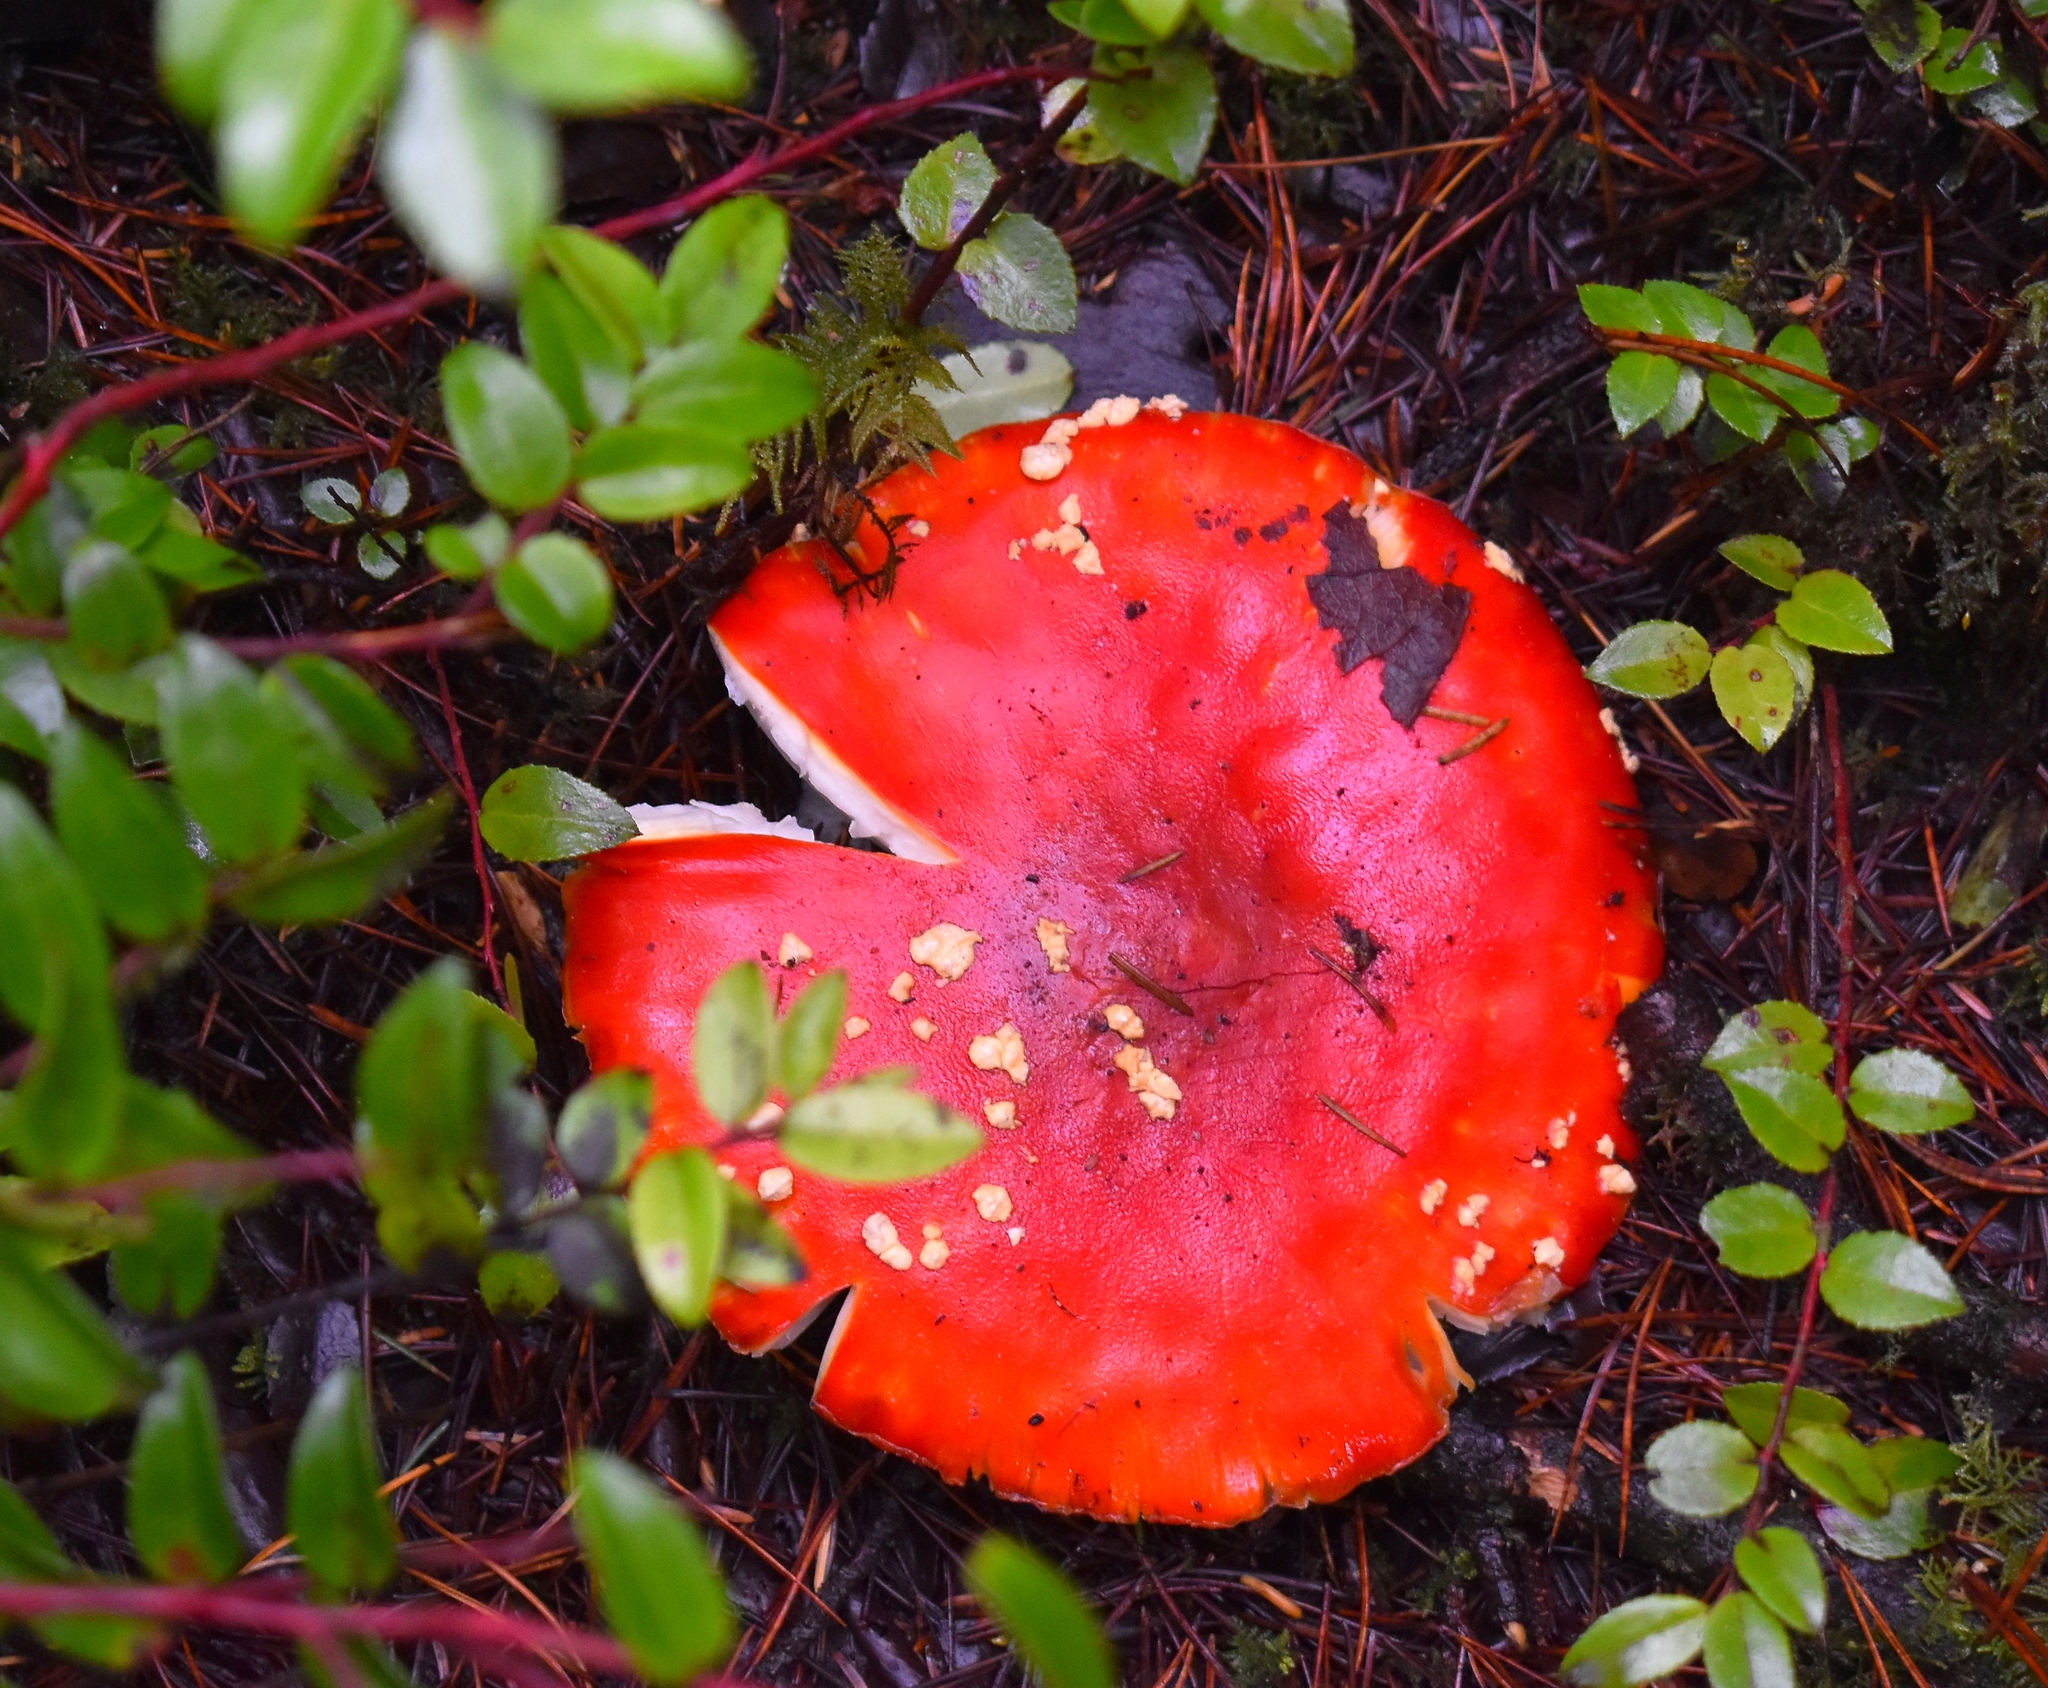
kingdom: Fungi
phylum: Basidiomycota
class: Agaricomycetes
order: Agaricales
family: Amanitaceae
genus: Amanita
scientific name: Amanita muscaria
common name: Fly agaric
